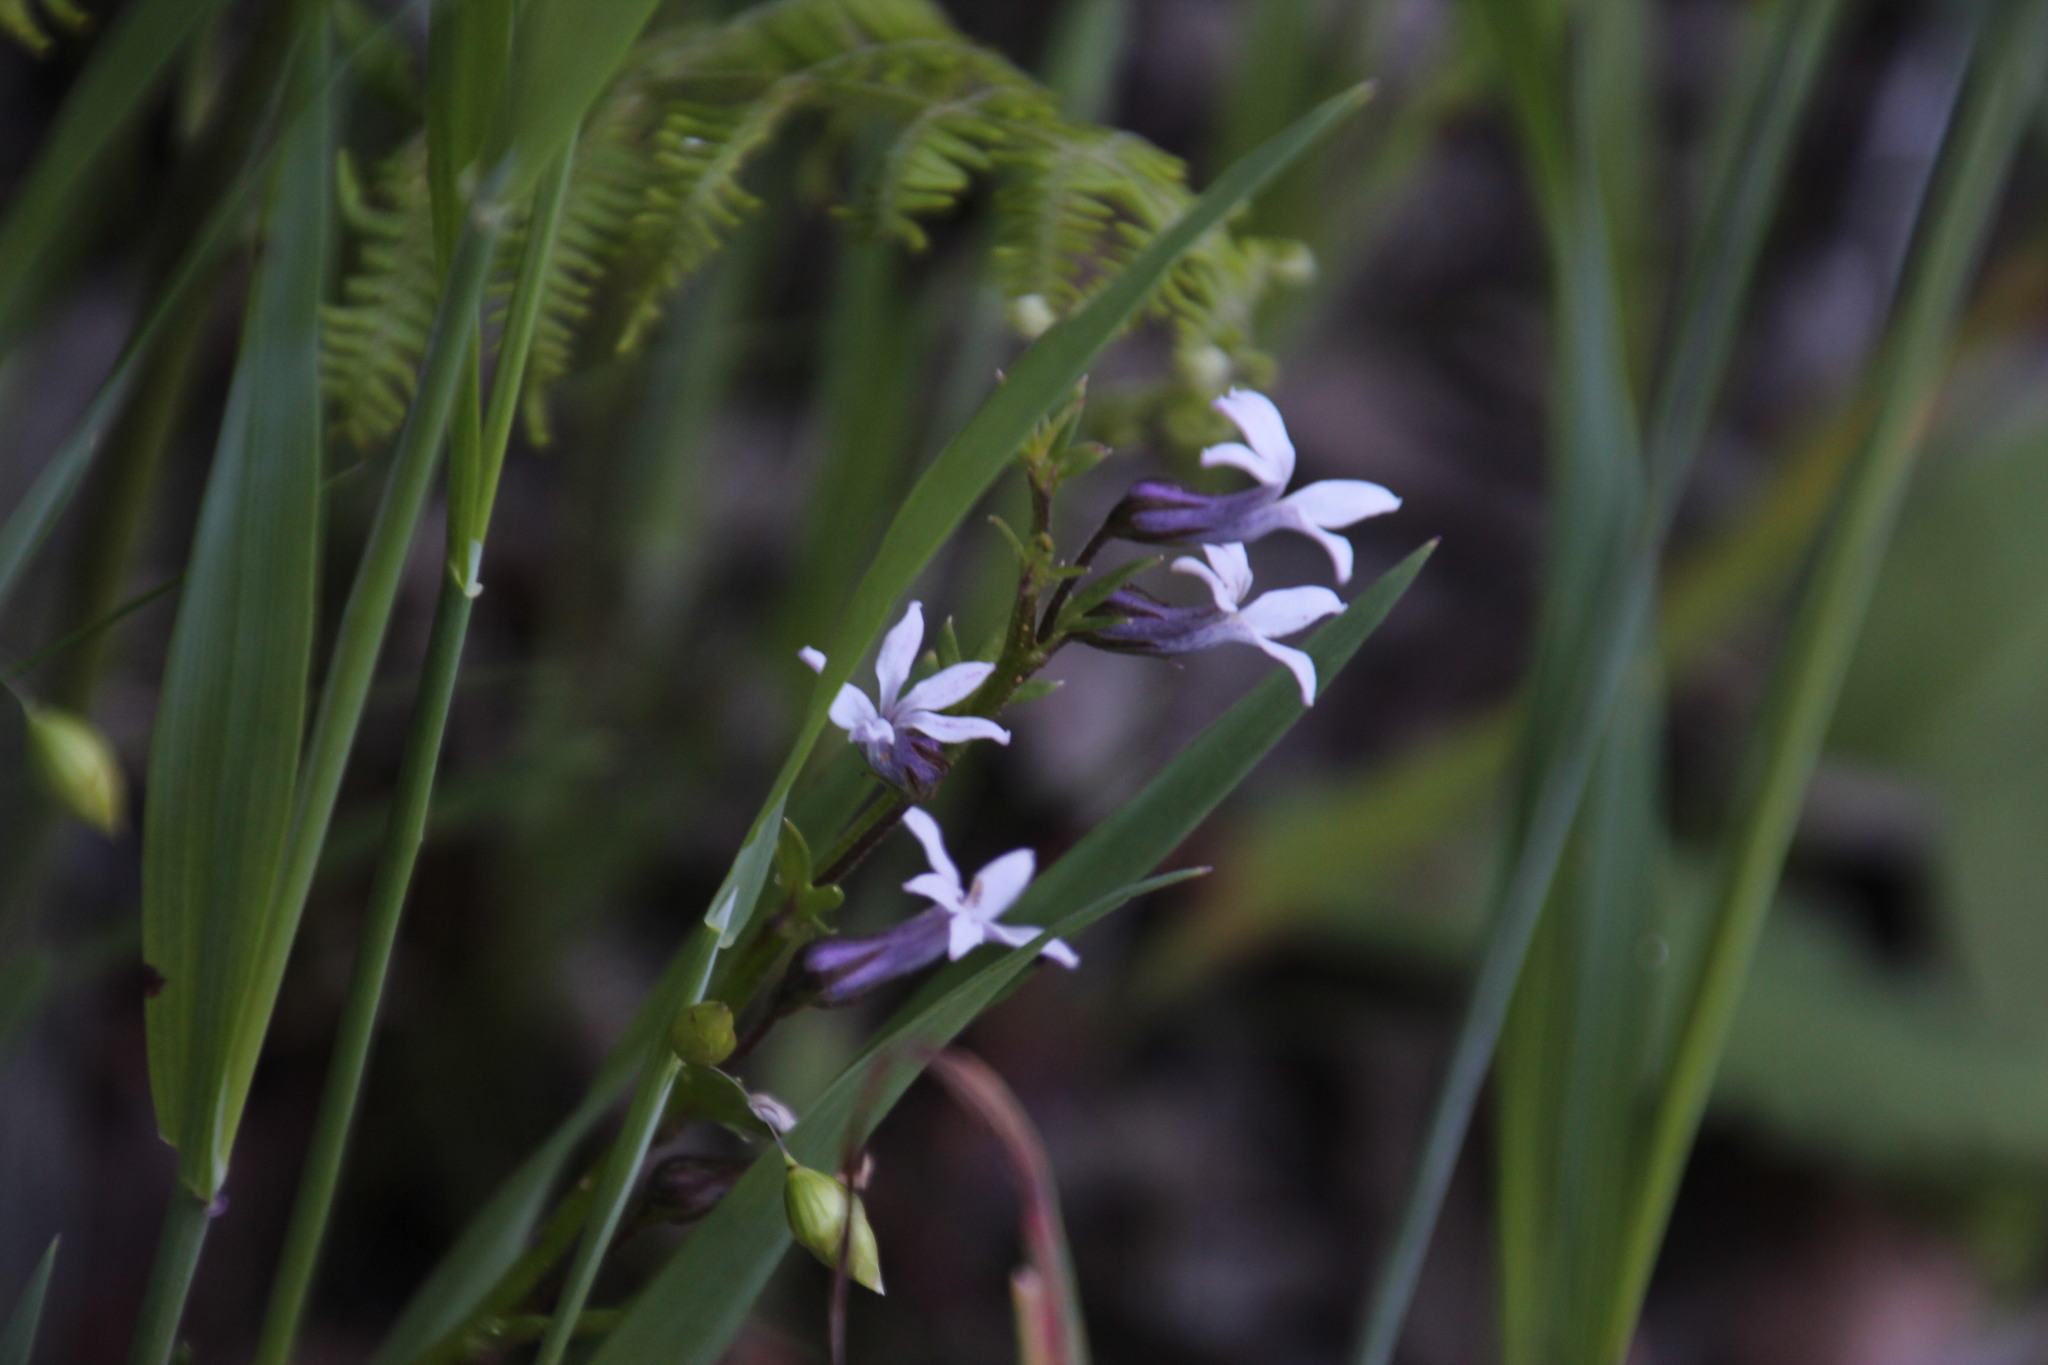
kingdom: Plantae
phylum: Tracheophyta
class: Magnoliopsida
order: Asterales
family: Campanulaceae
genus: Cyphia
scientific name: Cyphia bulbosa
